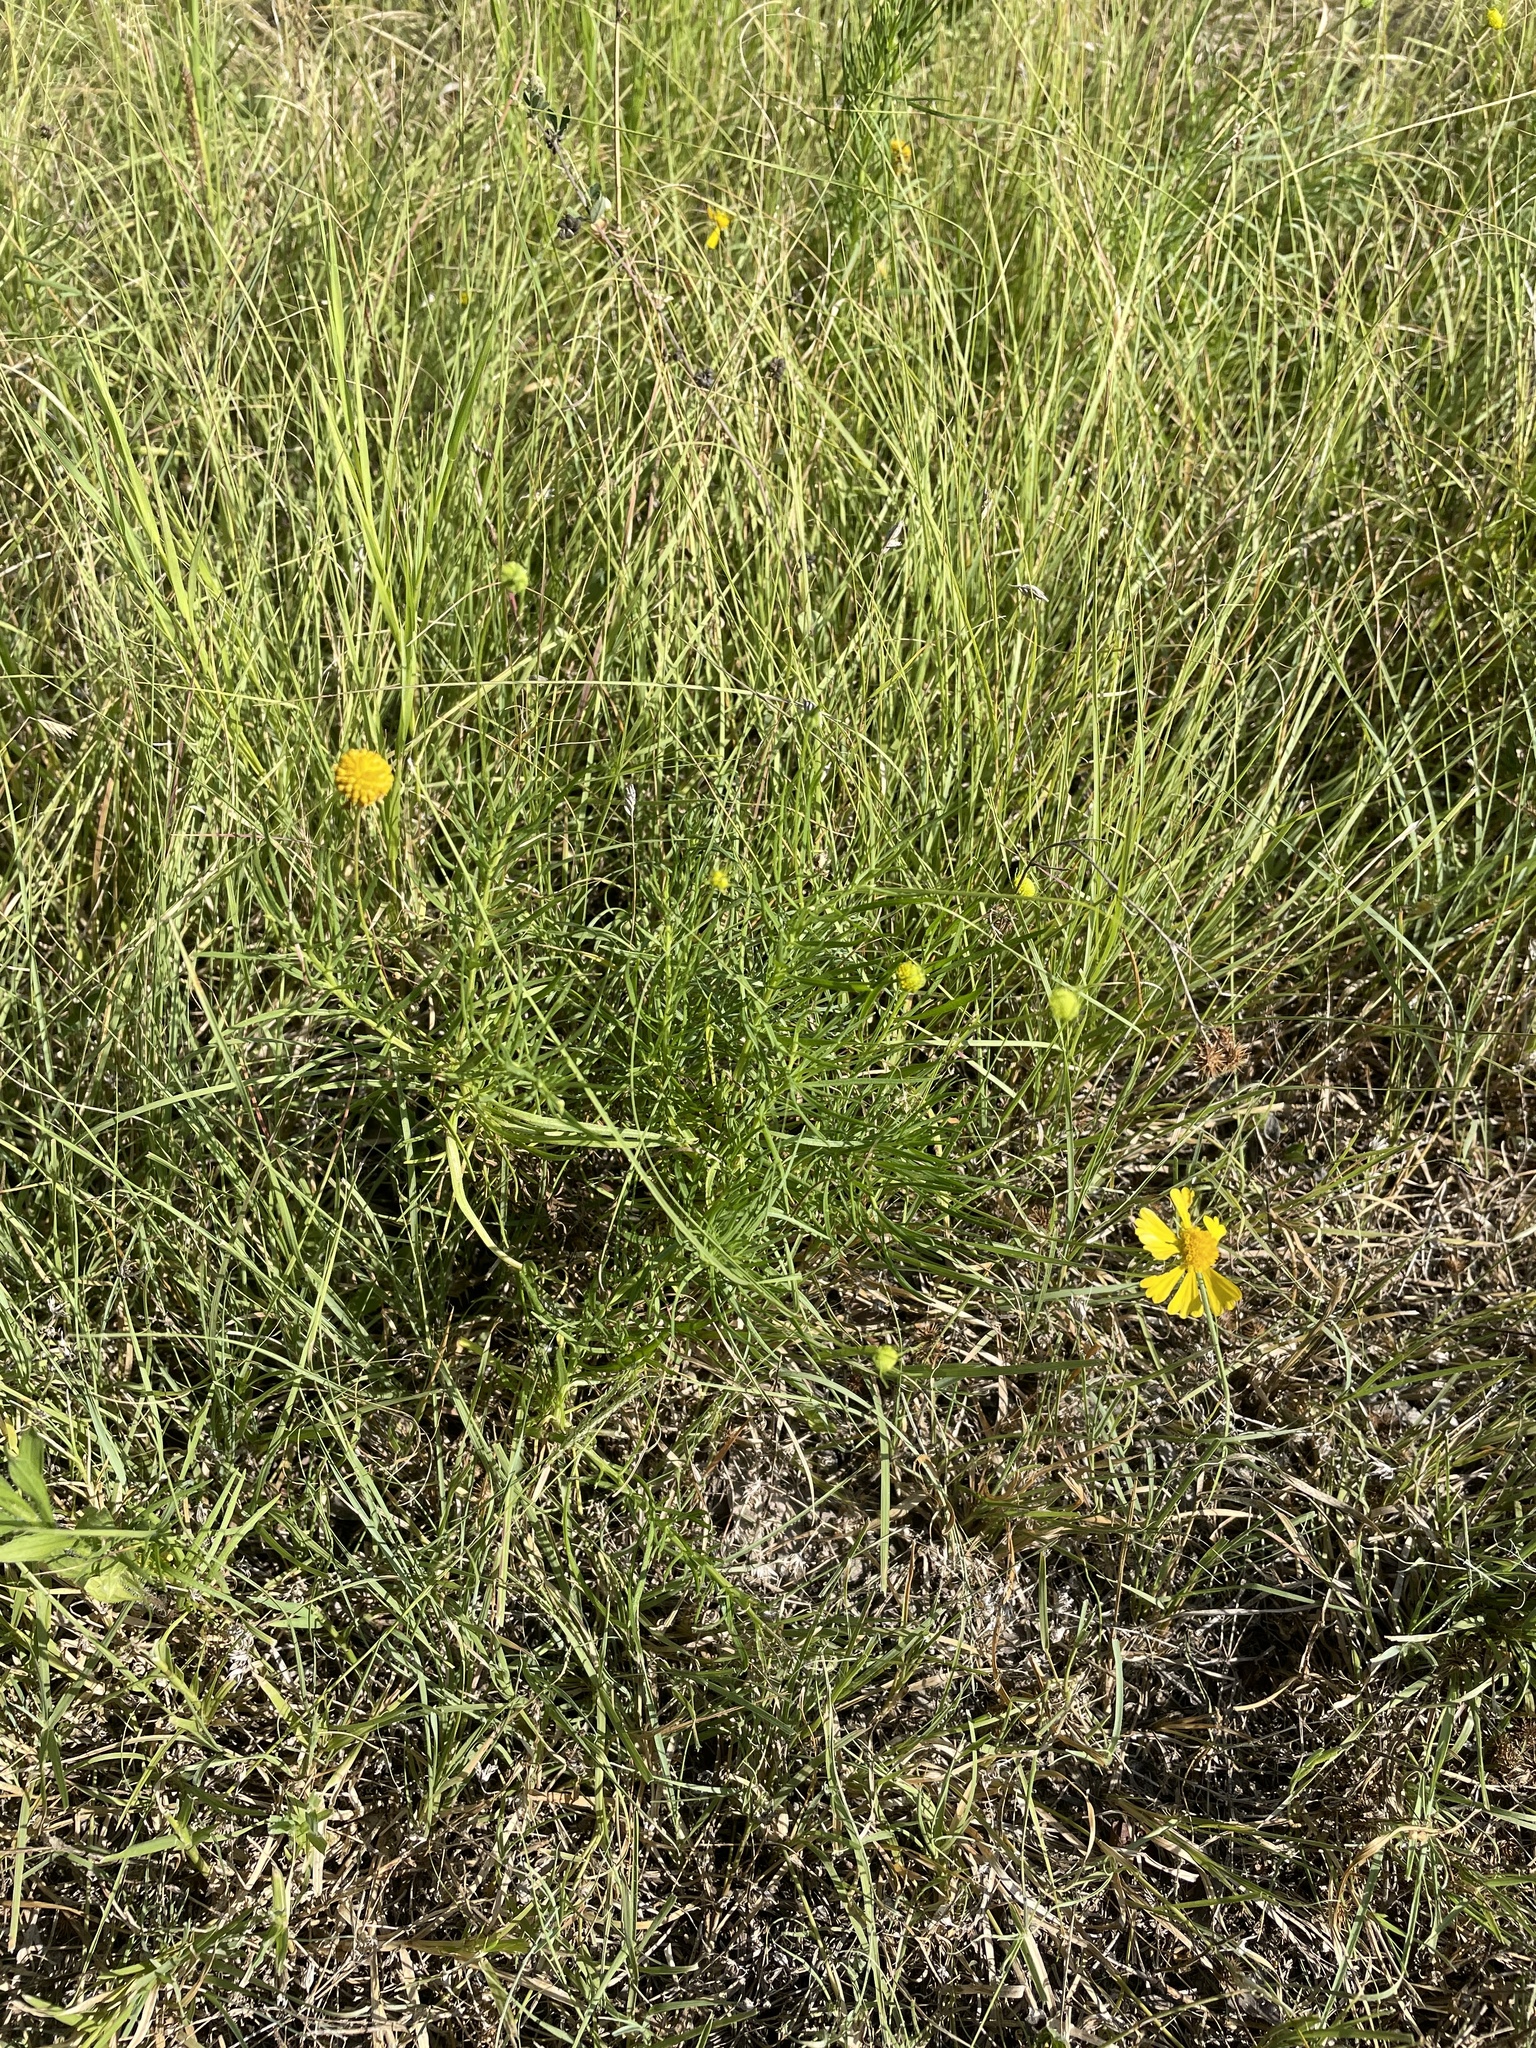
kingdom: Plantae
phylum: Tracheophyta
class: Magnoliopsida
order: Asterales
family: Asteraceae
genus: Helenium
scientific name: Helenium amarum
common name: Bitter sneezeweed
